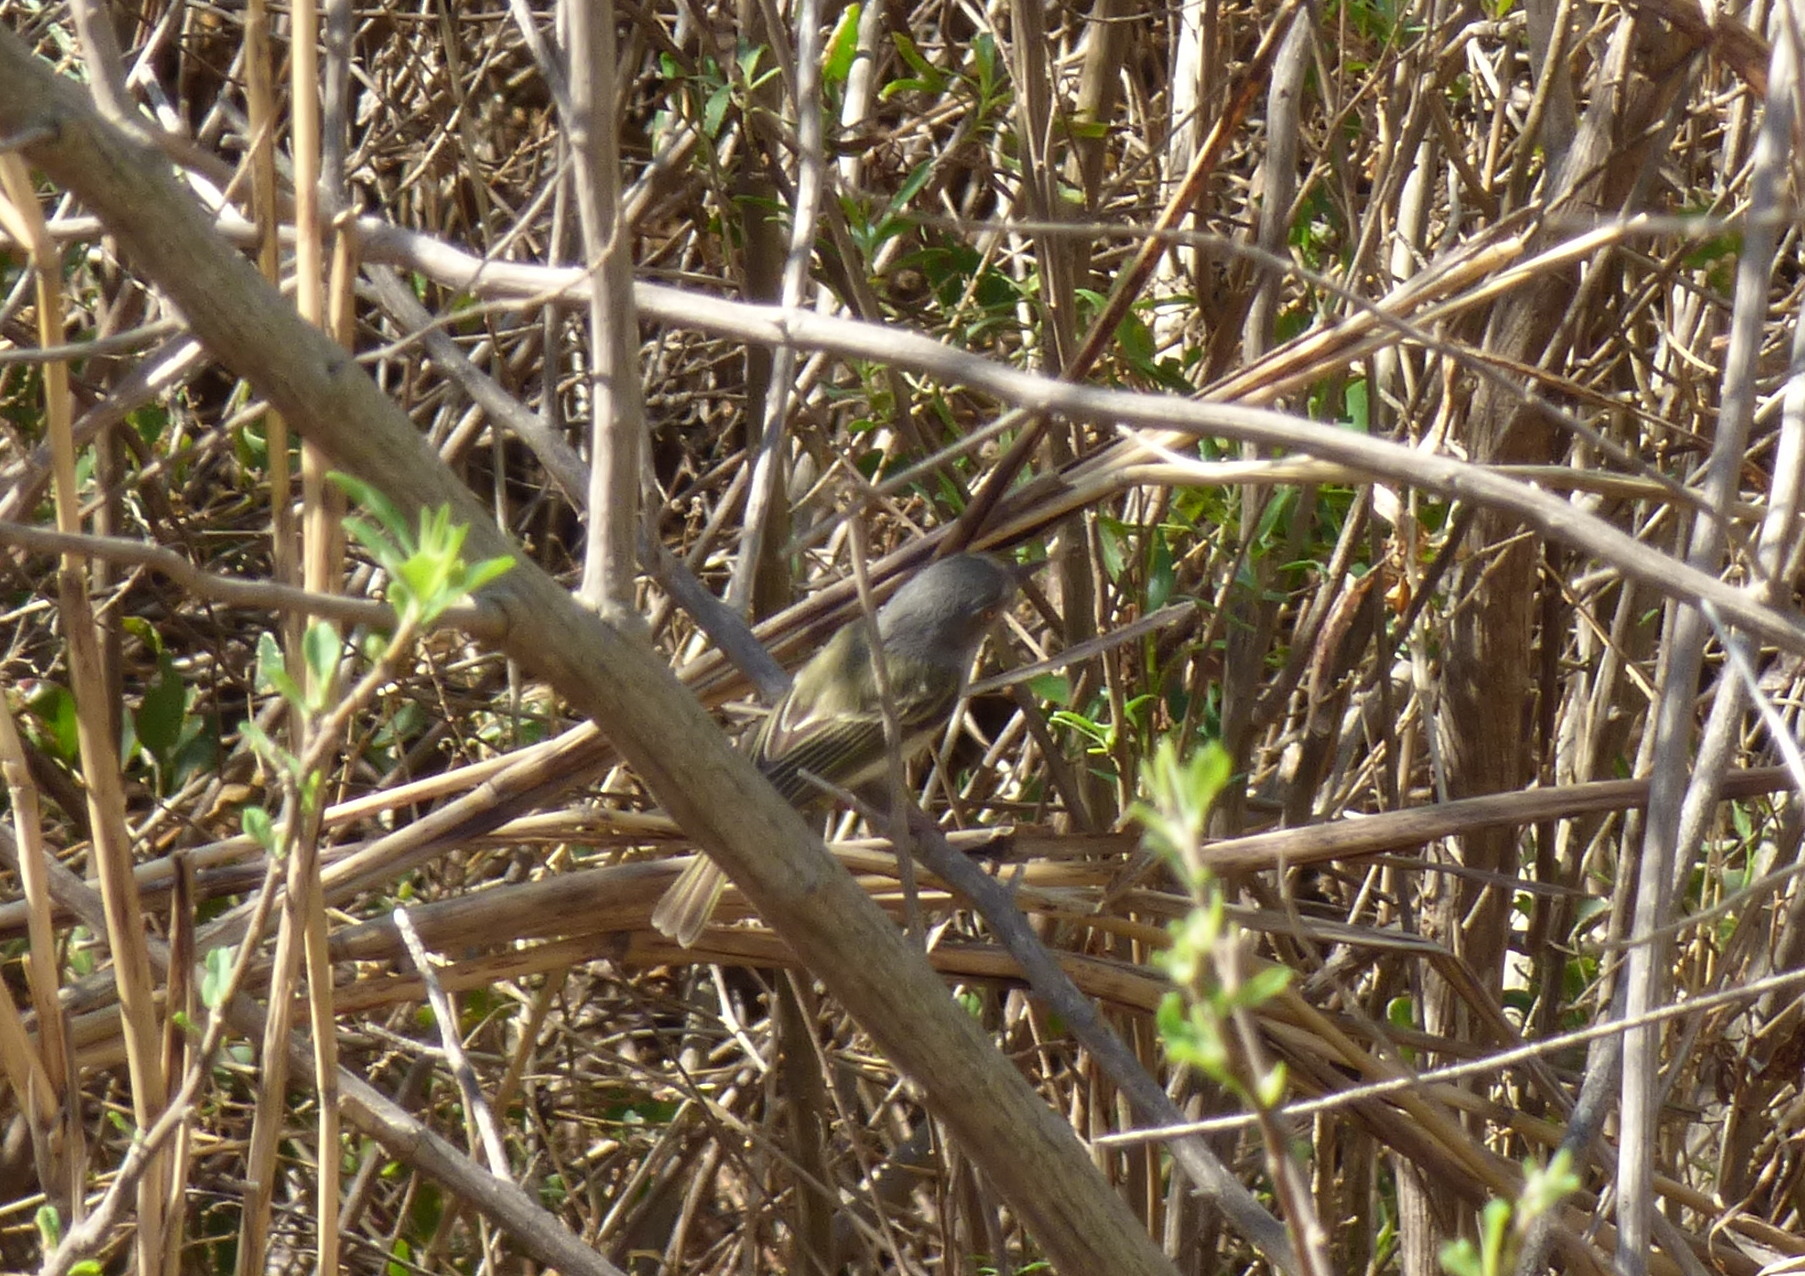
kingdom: Animalia
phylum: Chordata
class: Aves
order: Passeriformes
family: Tyrannidae
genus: Hemitriccus
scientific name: Hemitriccus margaritaceiventer
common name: Pearly-vented tody-tyrant
